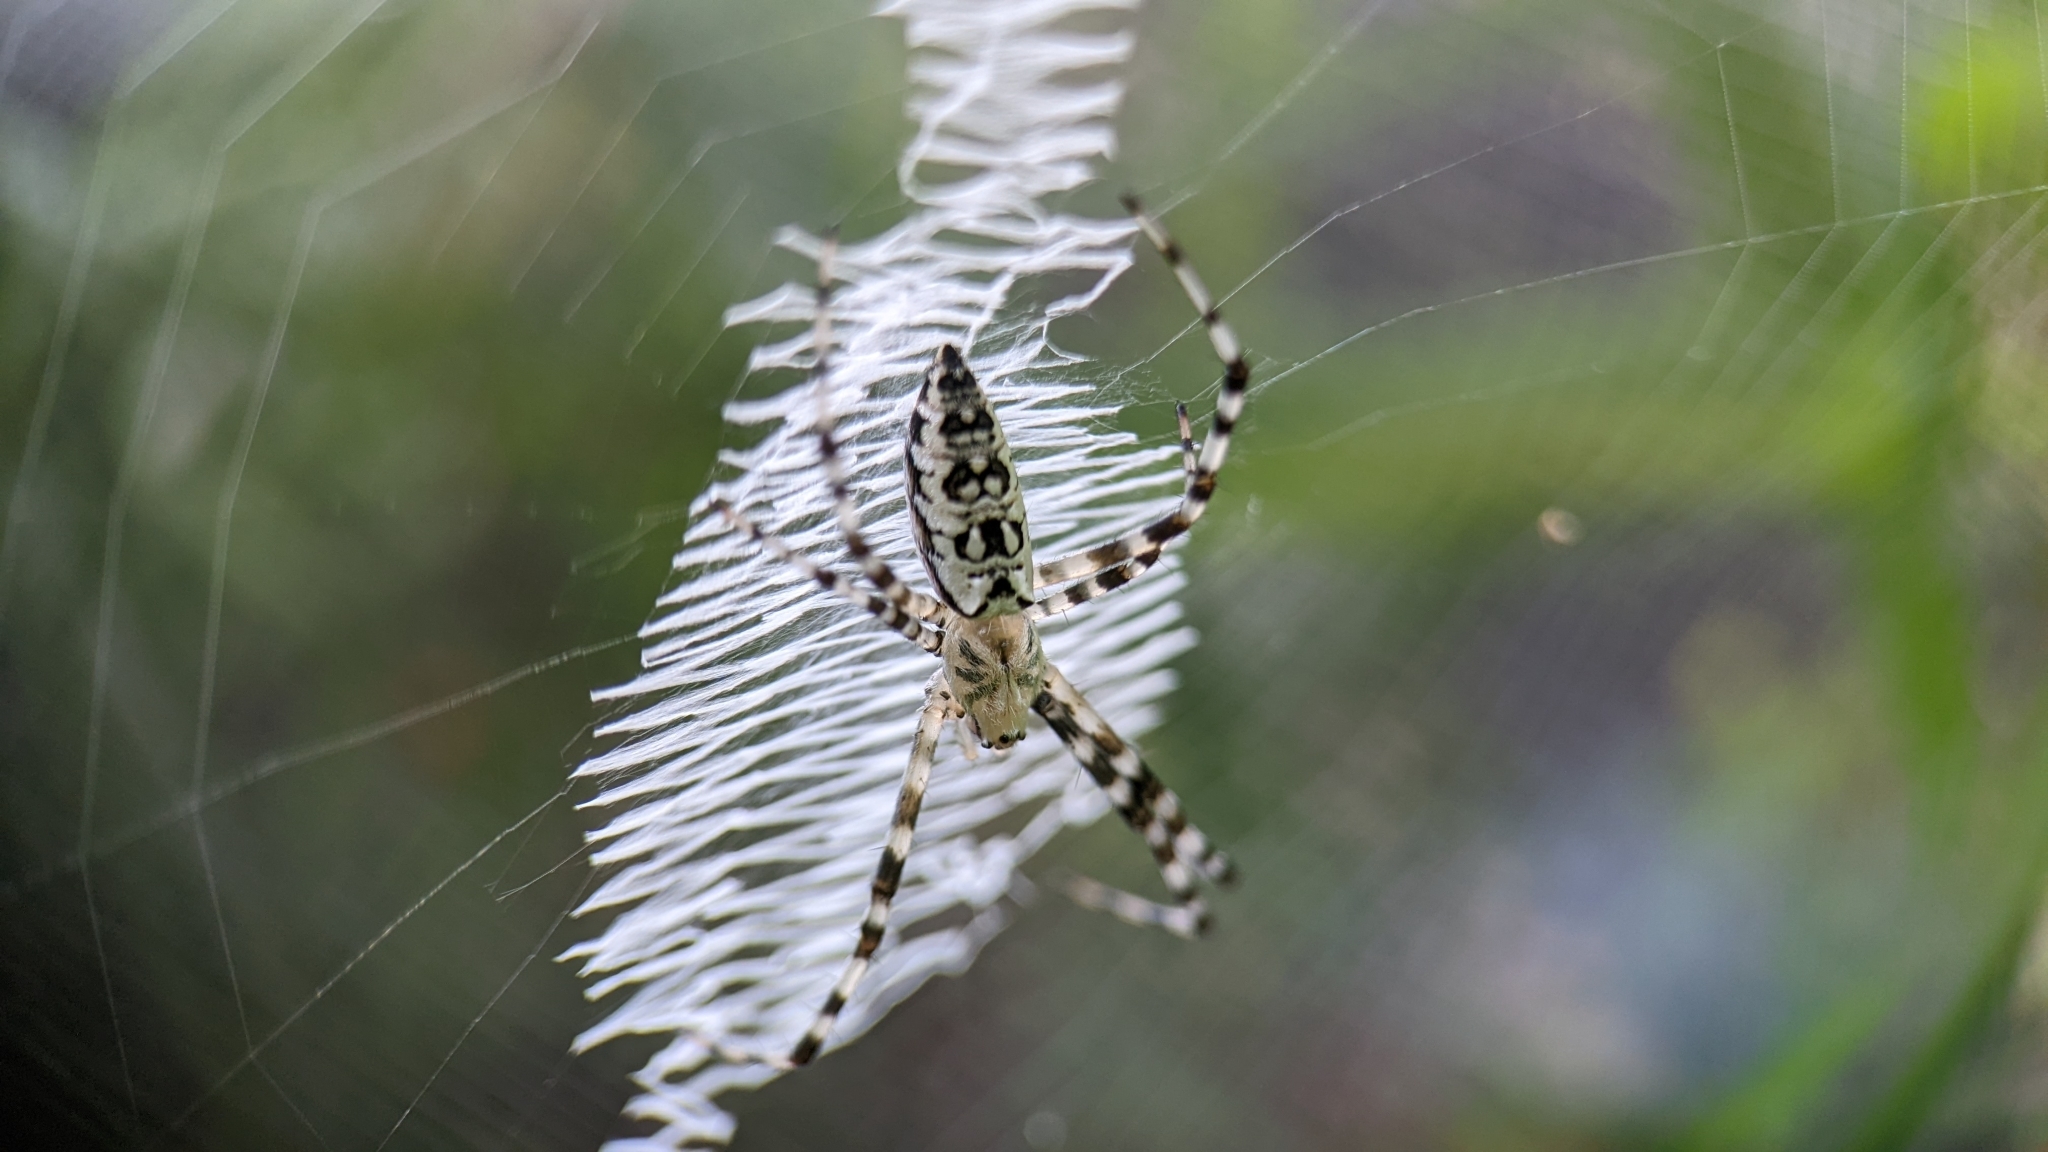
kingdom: Animalia
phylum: Arthropoda
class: Arachnida
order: Araneae
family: Araneidae
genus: Argiope
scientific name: Argiope aurantia
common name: Orb weavers
